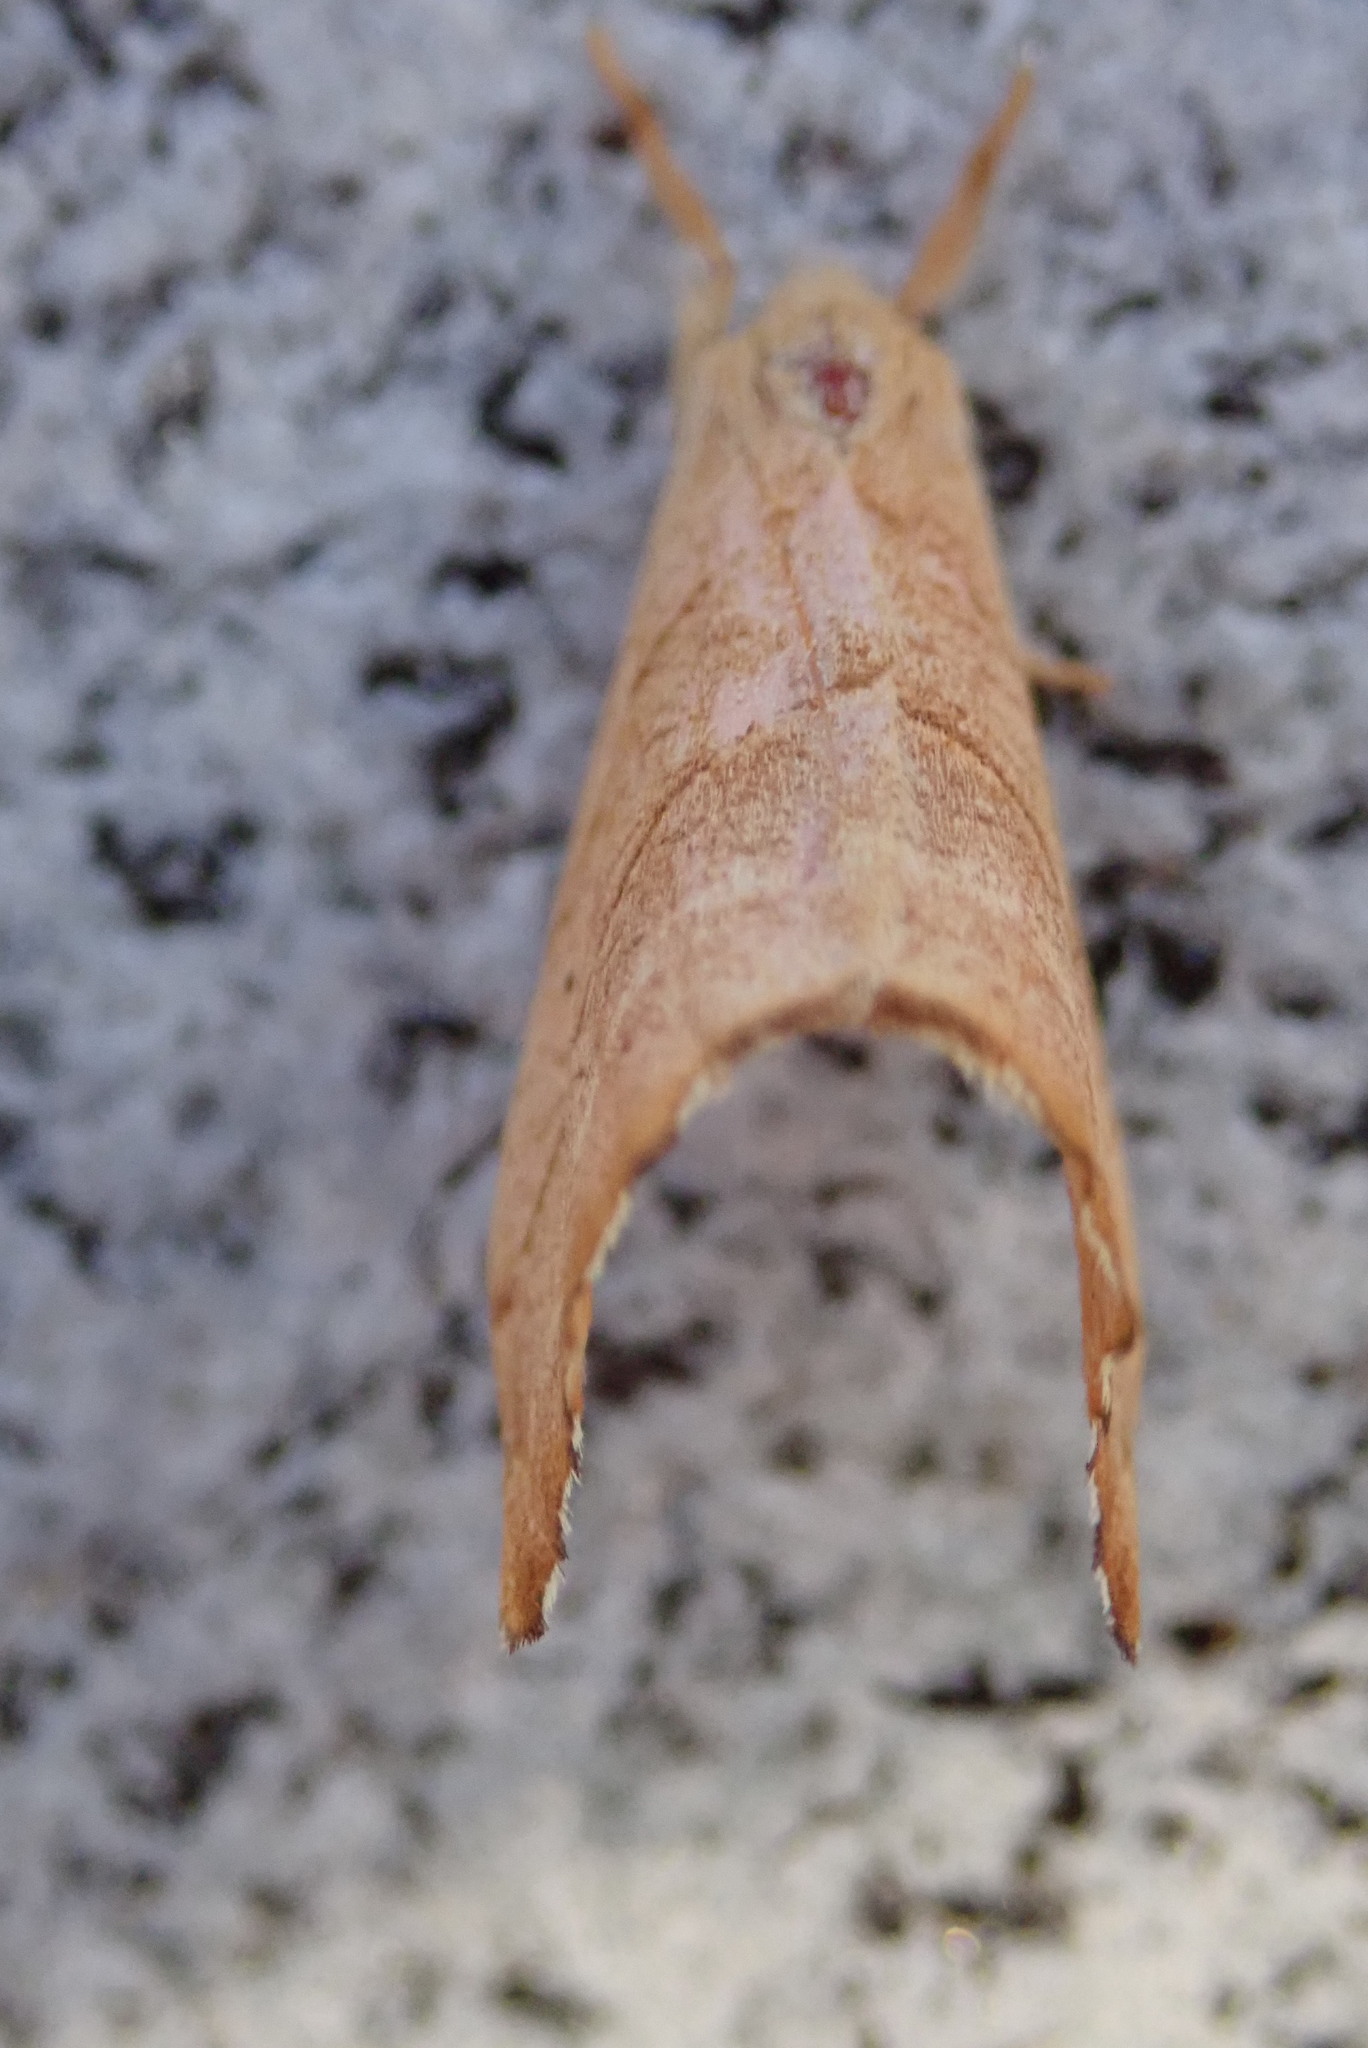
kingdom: Animalia
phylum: Arthropoda
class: Insecta
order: Lepidoptera
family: Drepanidae
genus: Falcaria
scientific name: Falcaria bilineata
